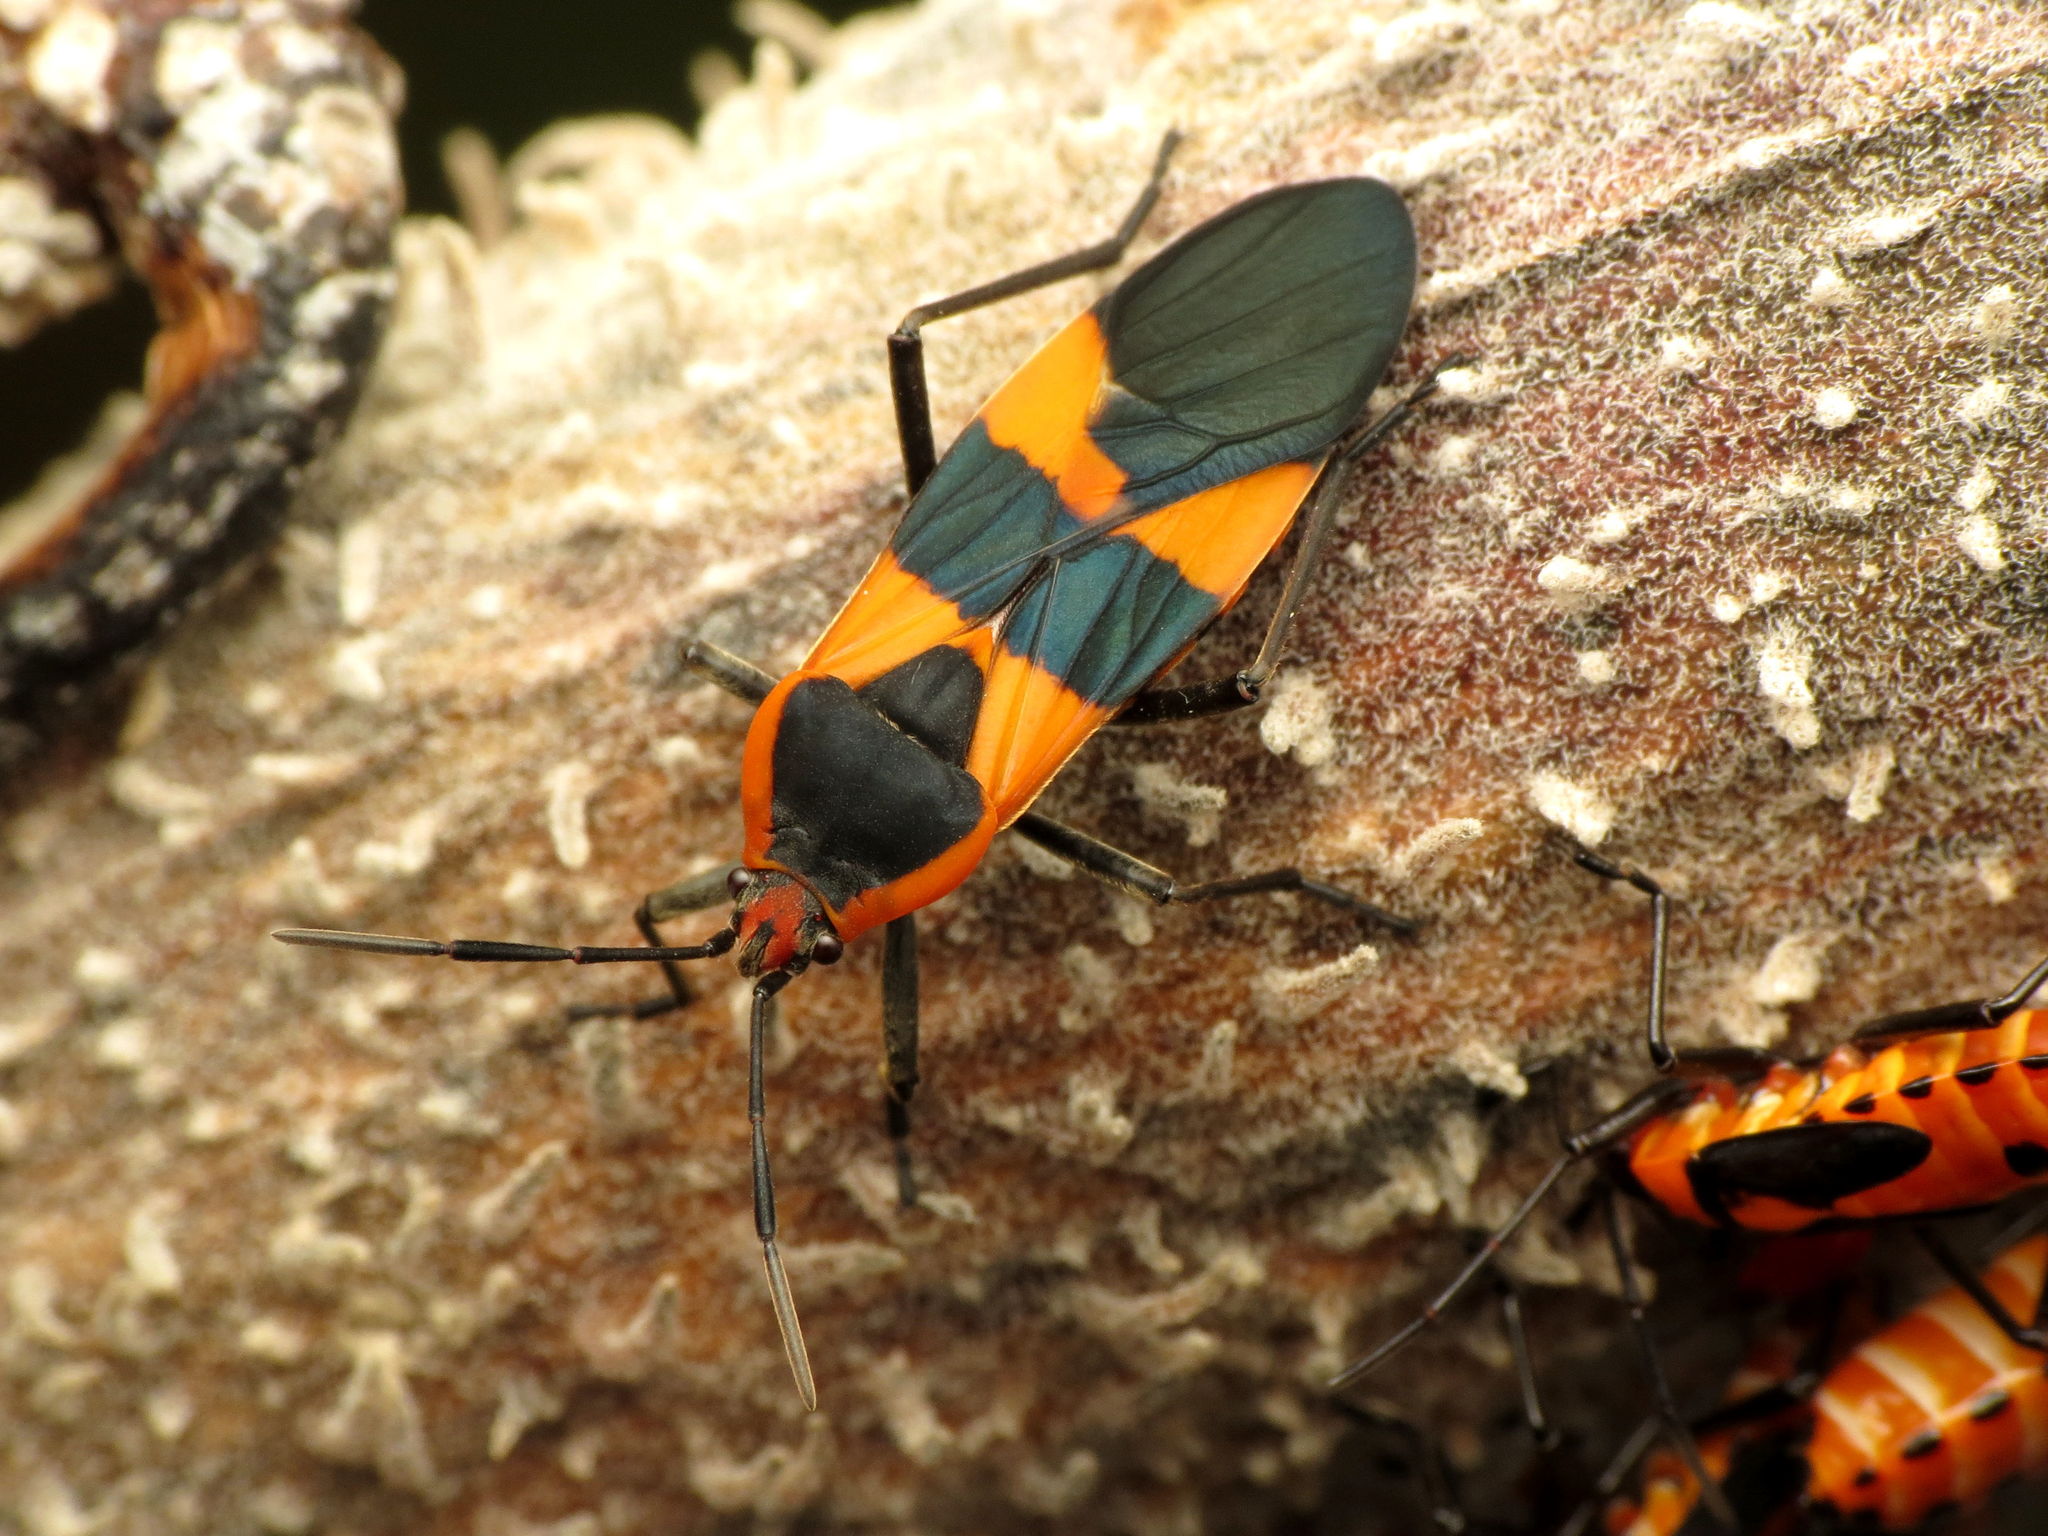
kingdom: Animalia
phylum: Arthropoda
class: Insecta
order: Hemiptera
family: Lygaeidae
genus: Oncopeltus
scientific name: Oncopeltus fasciatus
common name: Large milkweed bug
